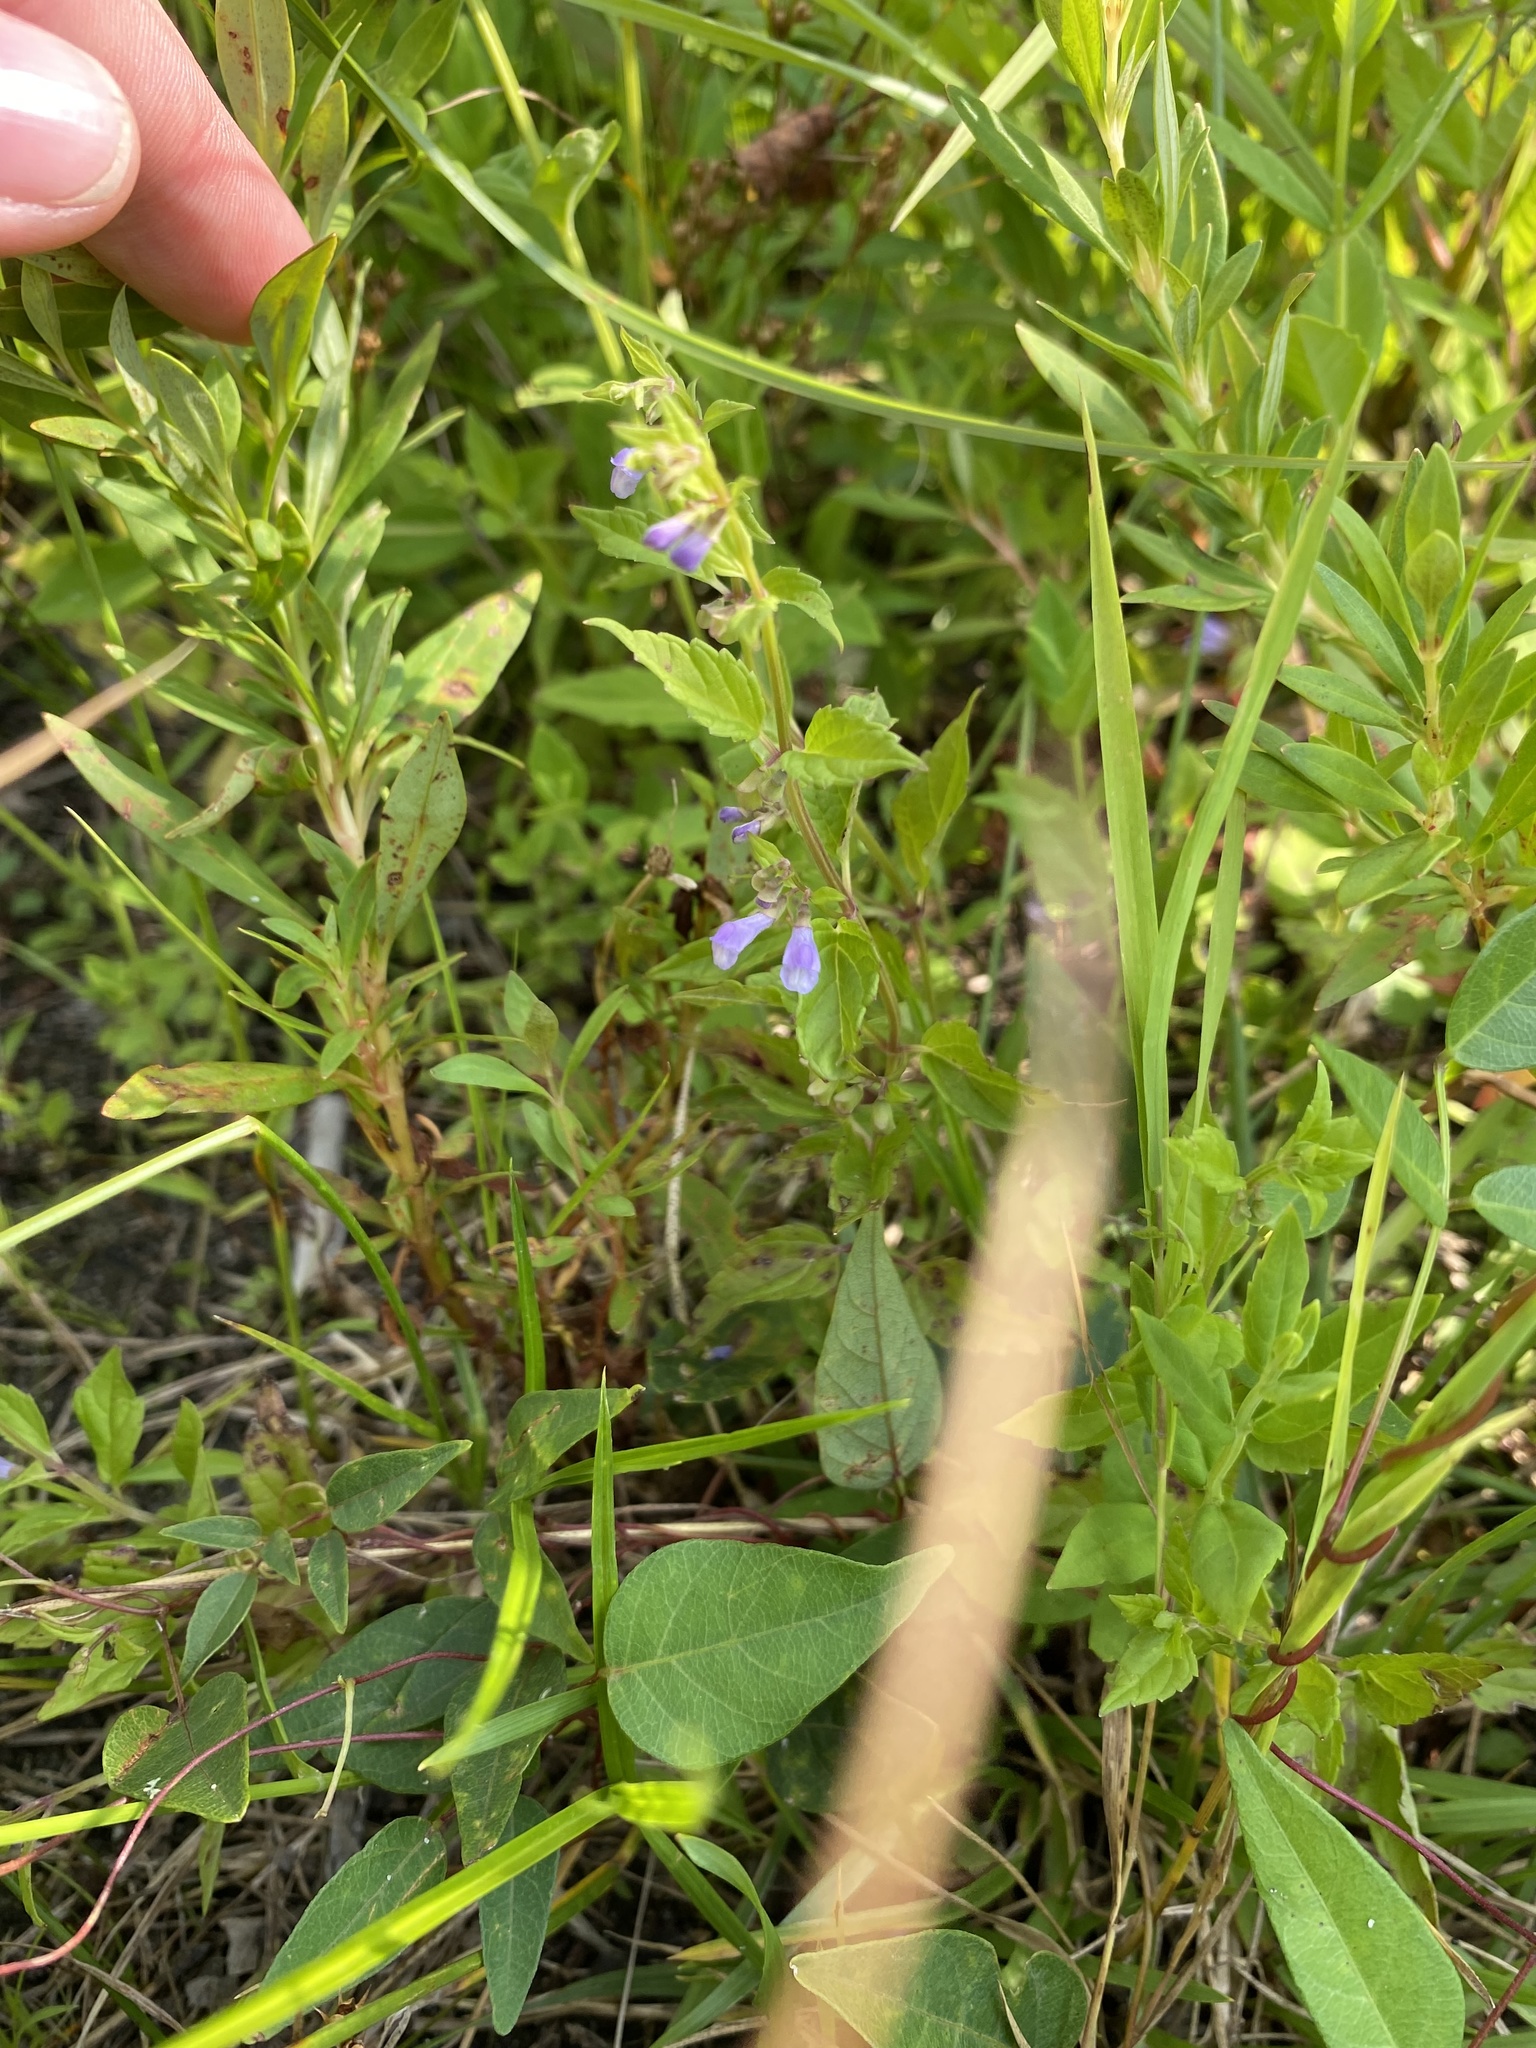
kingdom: Plantae
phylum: Tracheophyta
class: Magnoliopsida
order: Lamiales
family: Lamiaceae
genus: Scutellaria
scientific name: Scutellaria lateriflora
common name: Blue skullcap
